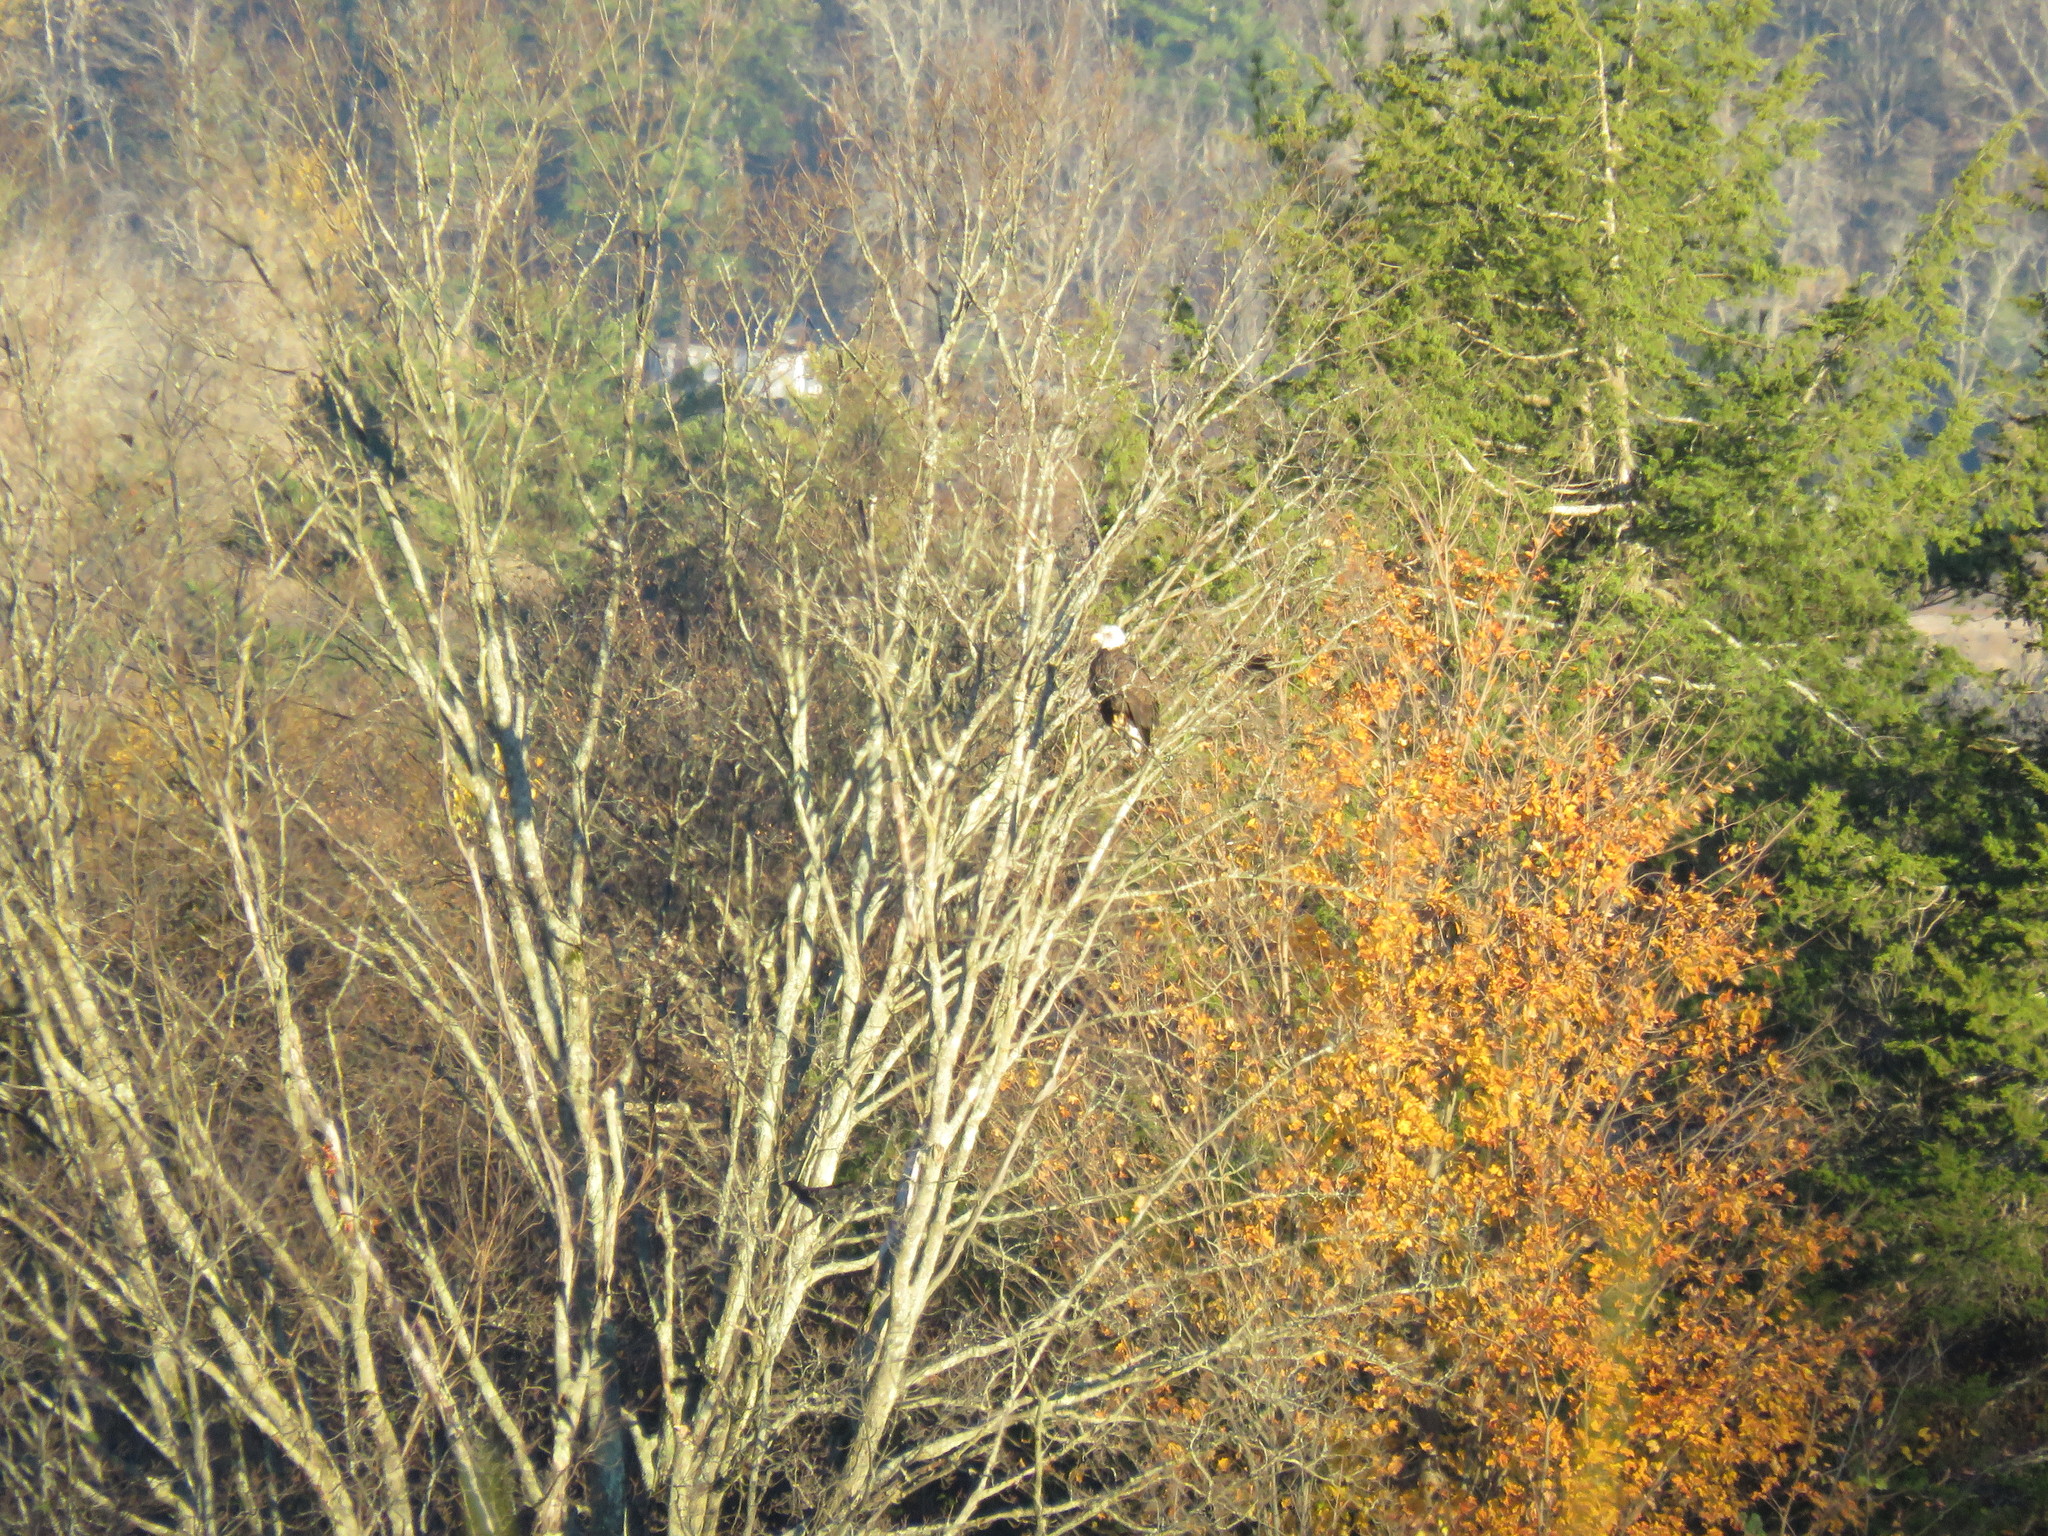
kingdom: Animalia
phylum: Chordata
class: Aves
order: Accipitriformes
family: Accipitridae
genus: Haliaeetus
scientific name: Haliaeetus leucocephalus
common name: Bald eagle
